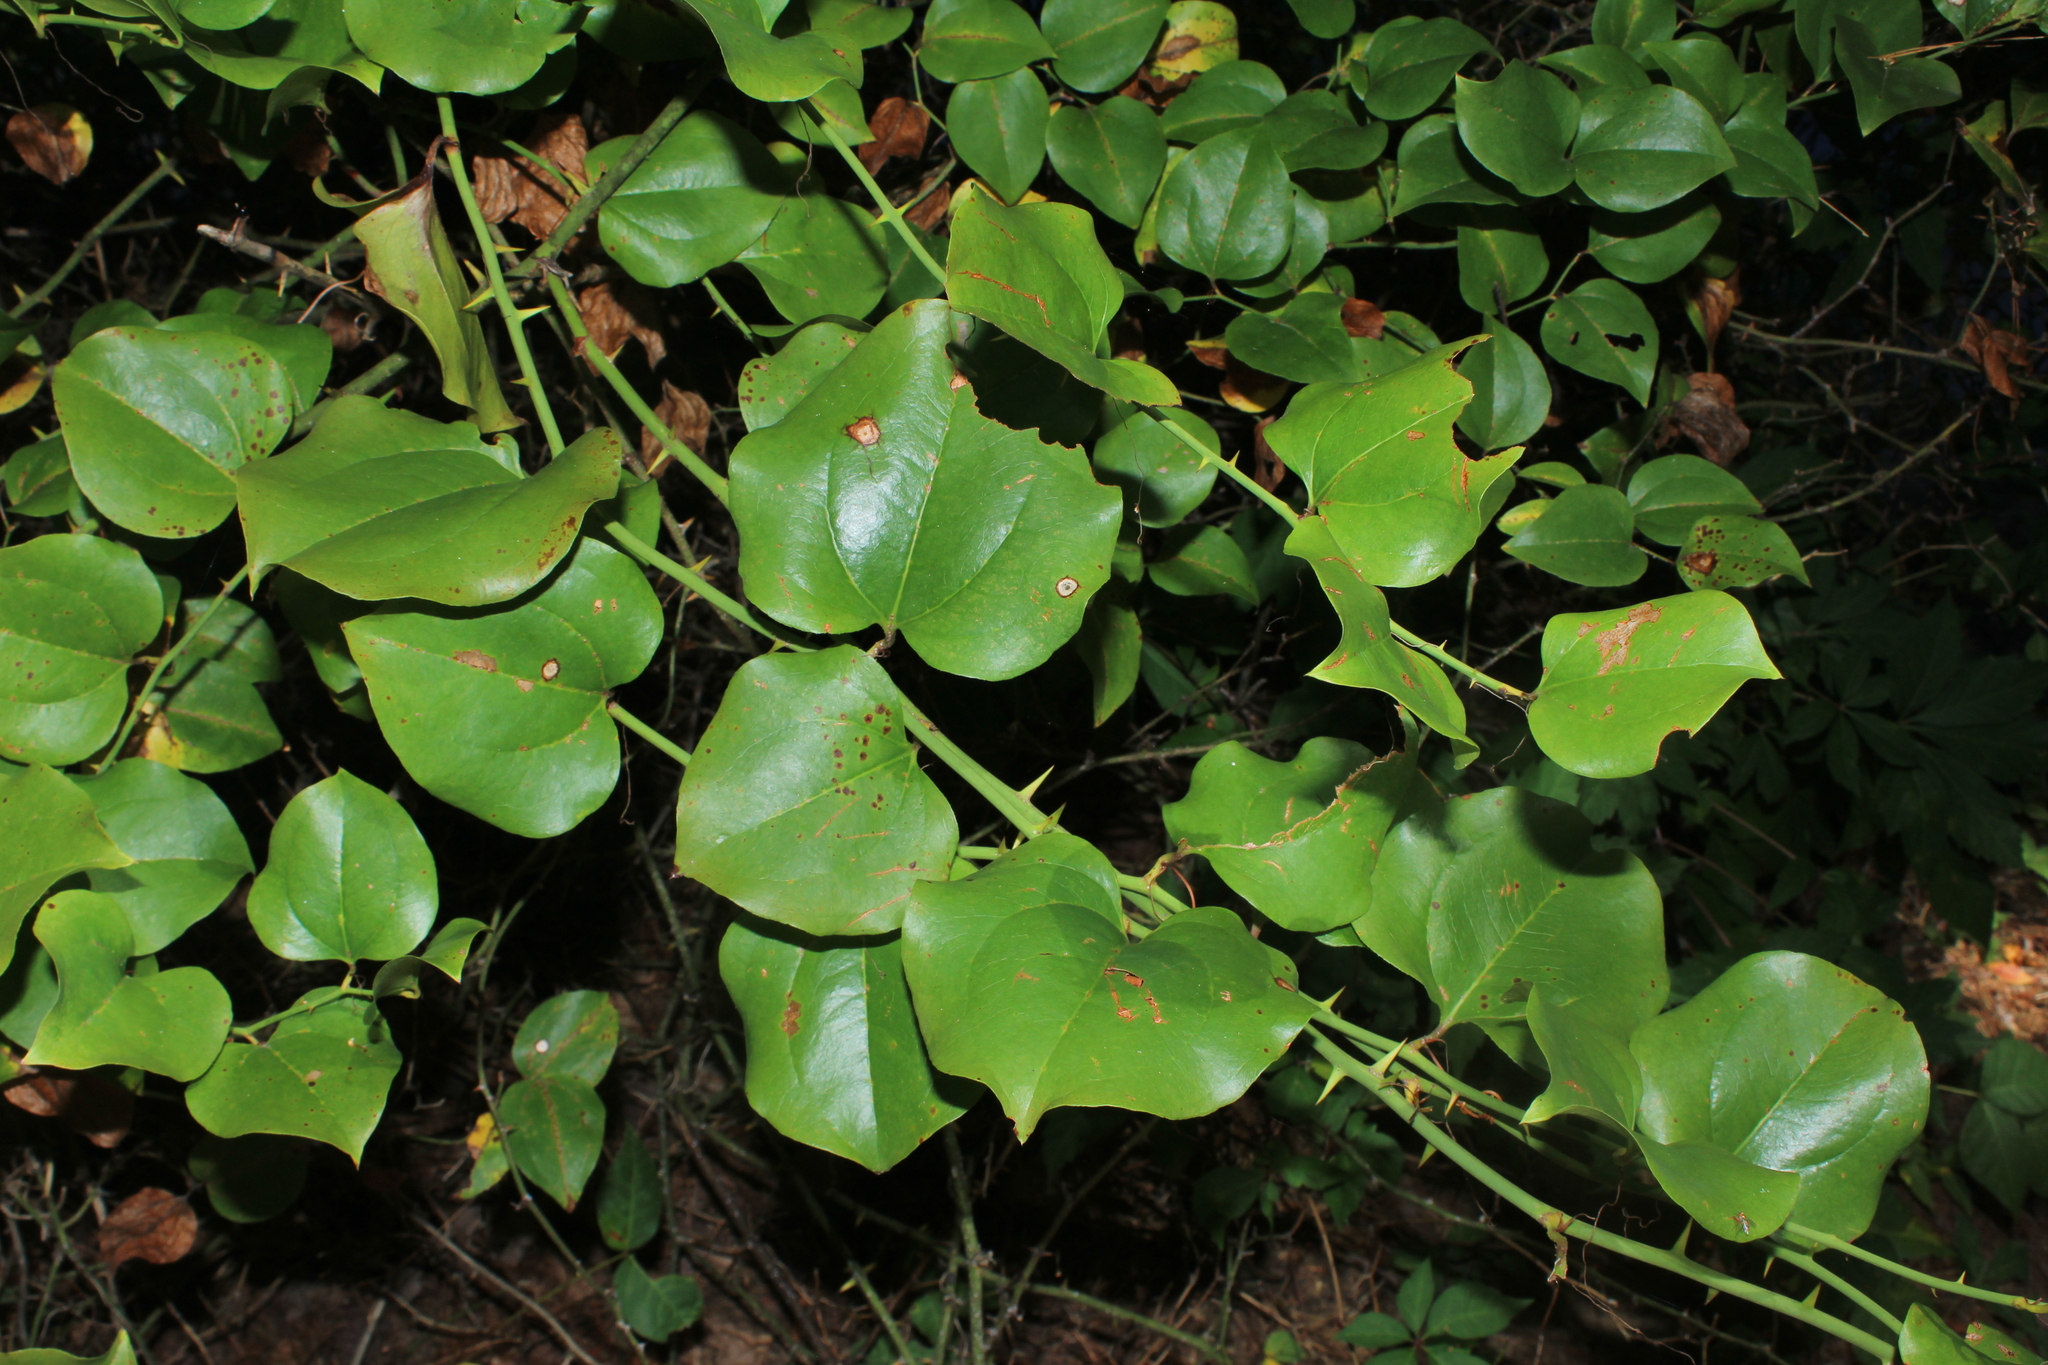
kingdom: Plantae
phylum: Tracheophyta
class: Liliopsida
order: Liliales
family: Smilacaceae
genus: Smilax
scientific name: Smilax rotundifolia
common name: Bullbriar
